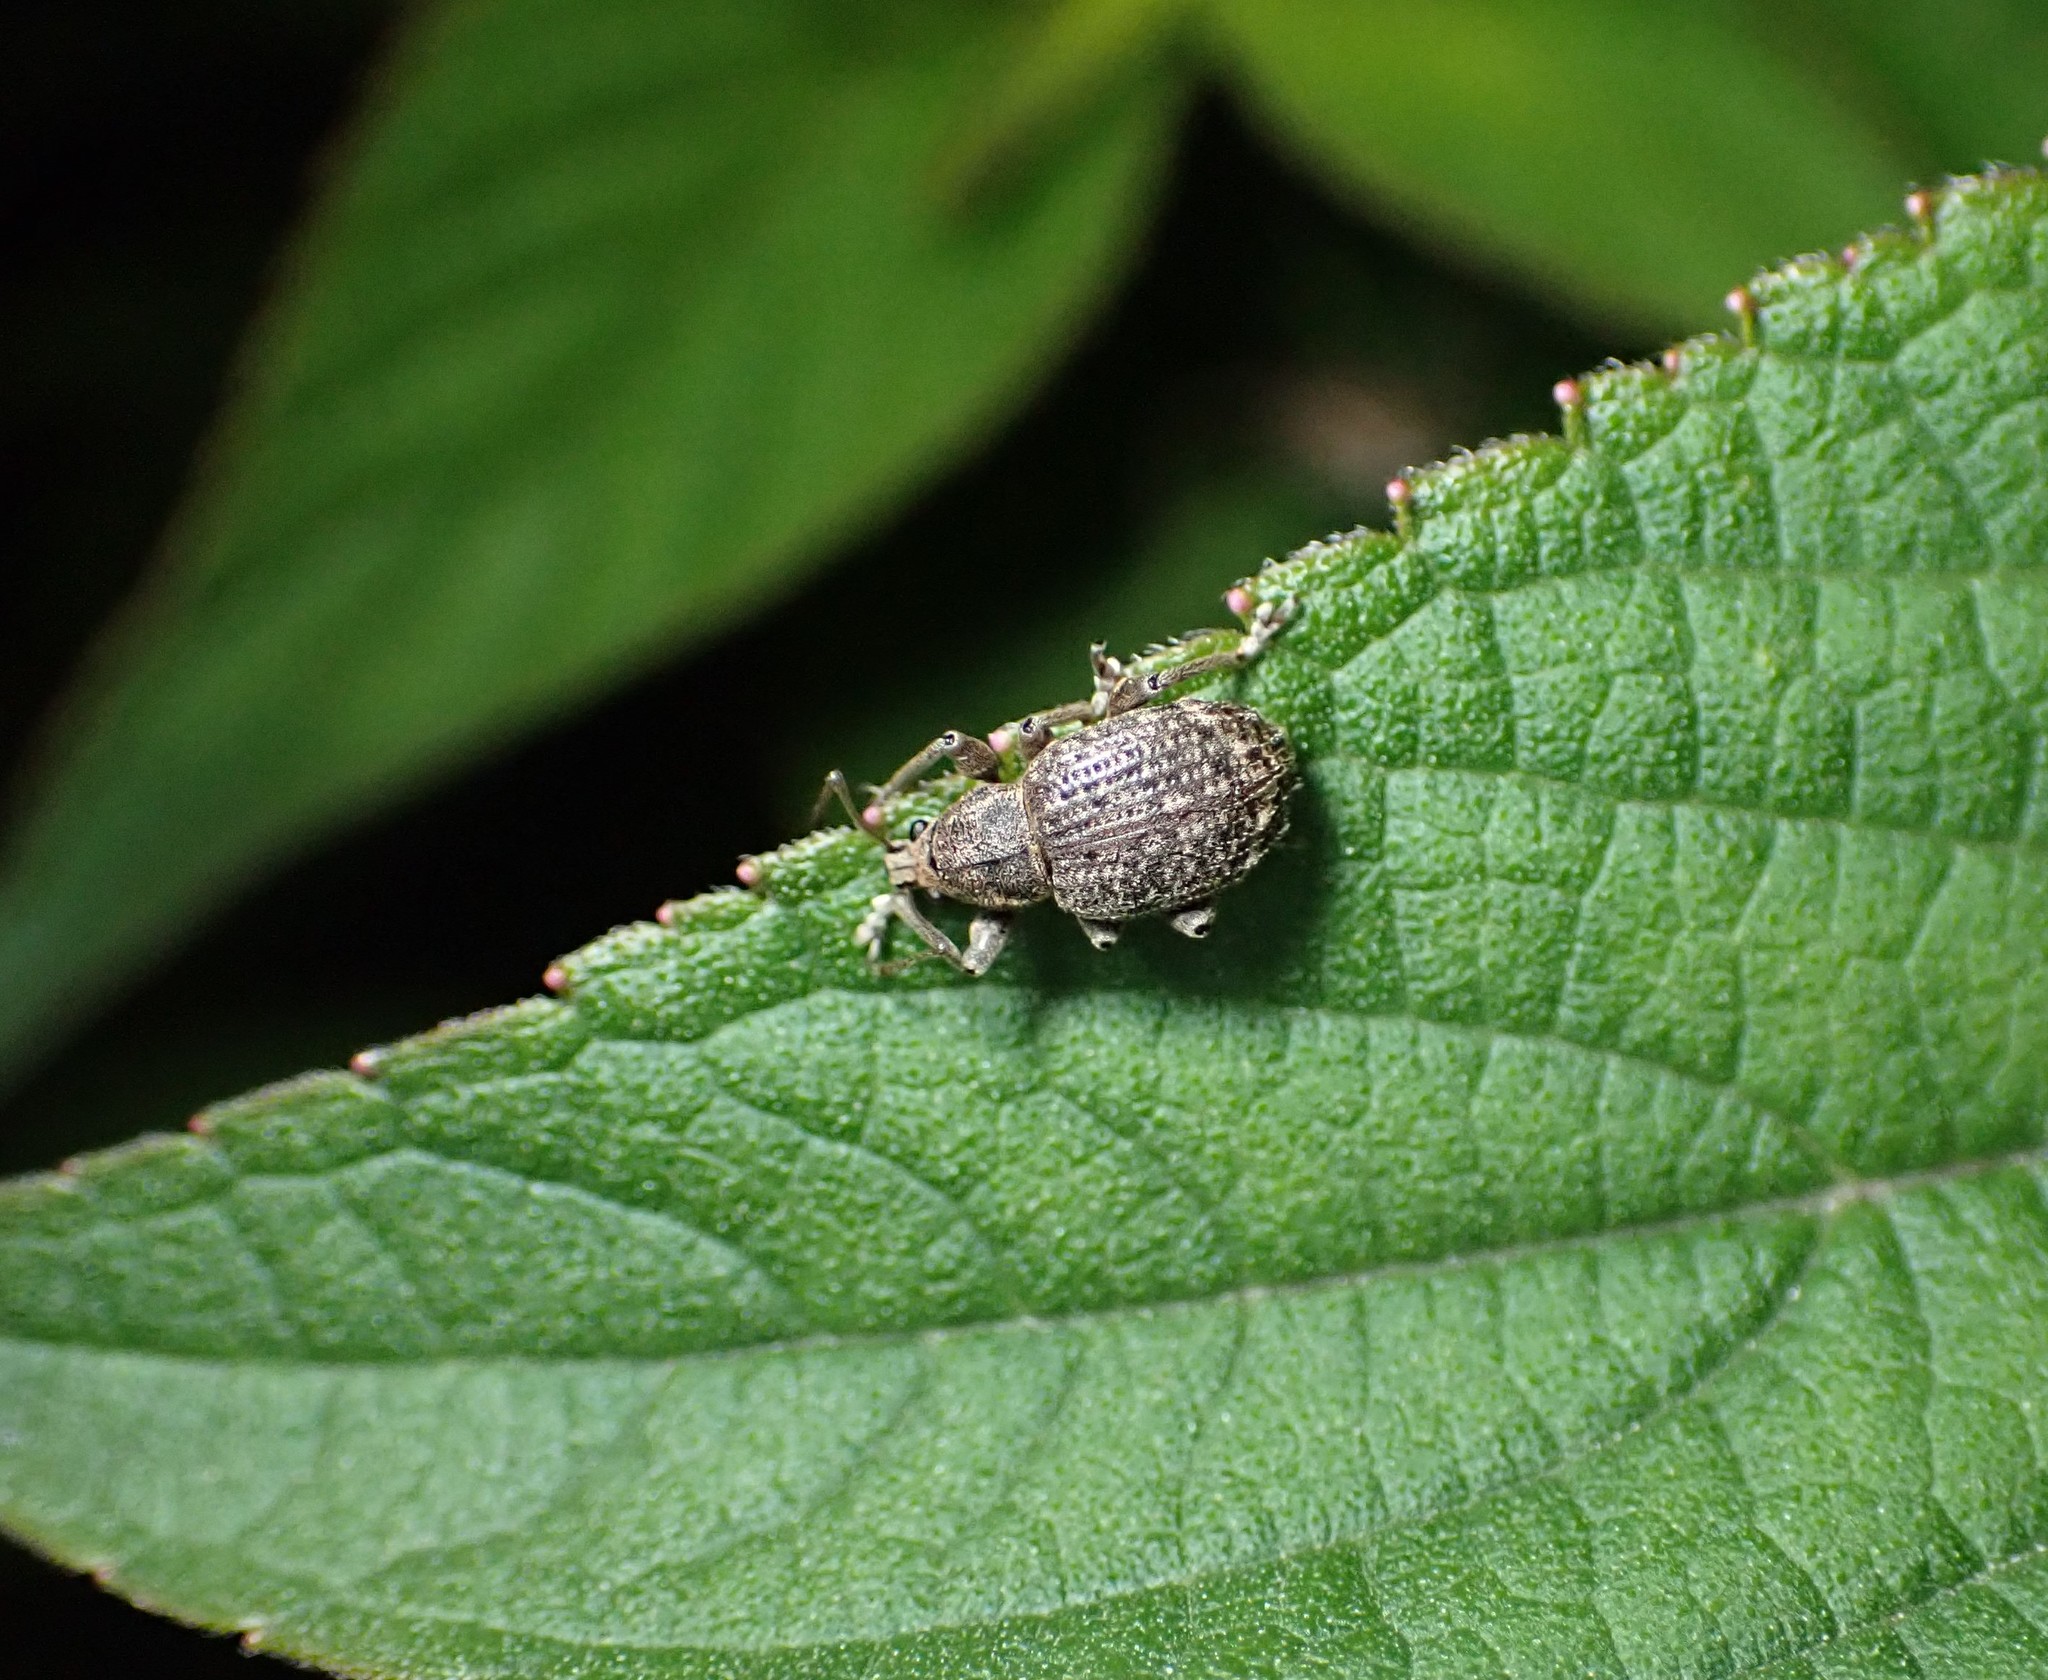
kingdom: Animalia
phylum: Arthropoda
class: Insecta
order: Coleoptera
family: Curculionidae
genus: Phlyctinus
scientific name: Phlyctinus callosus
